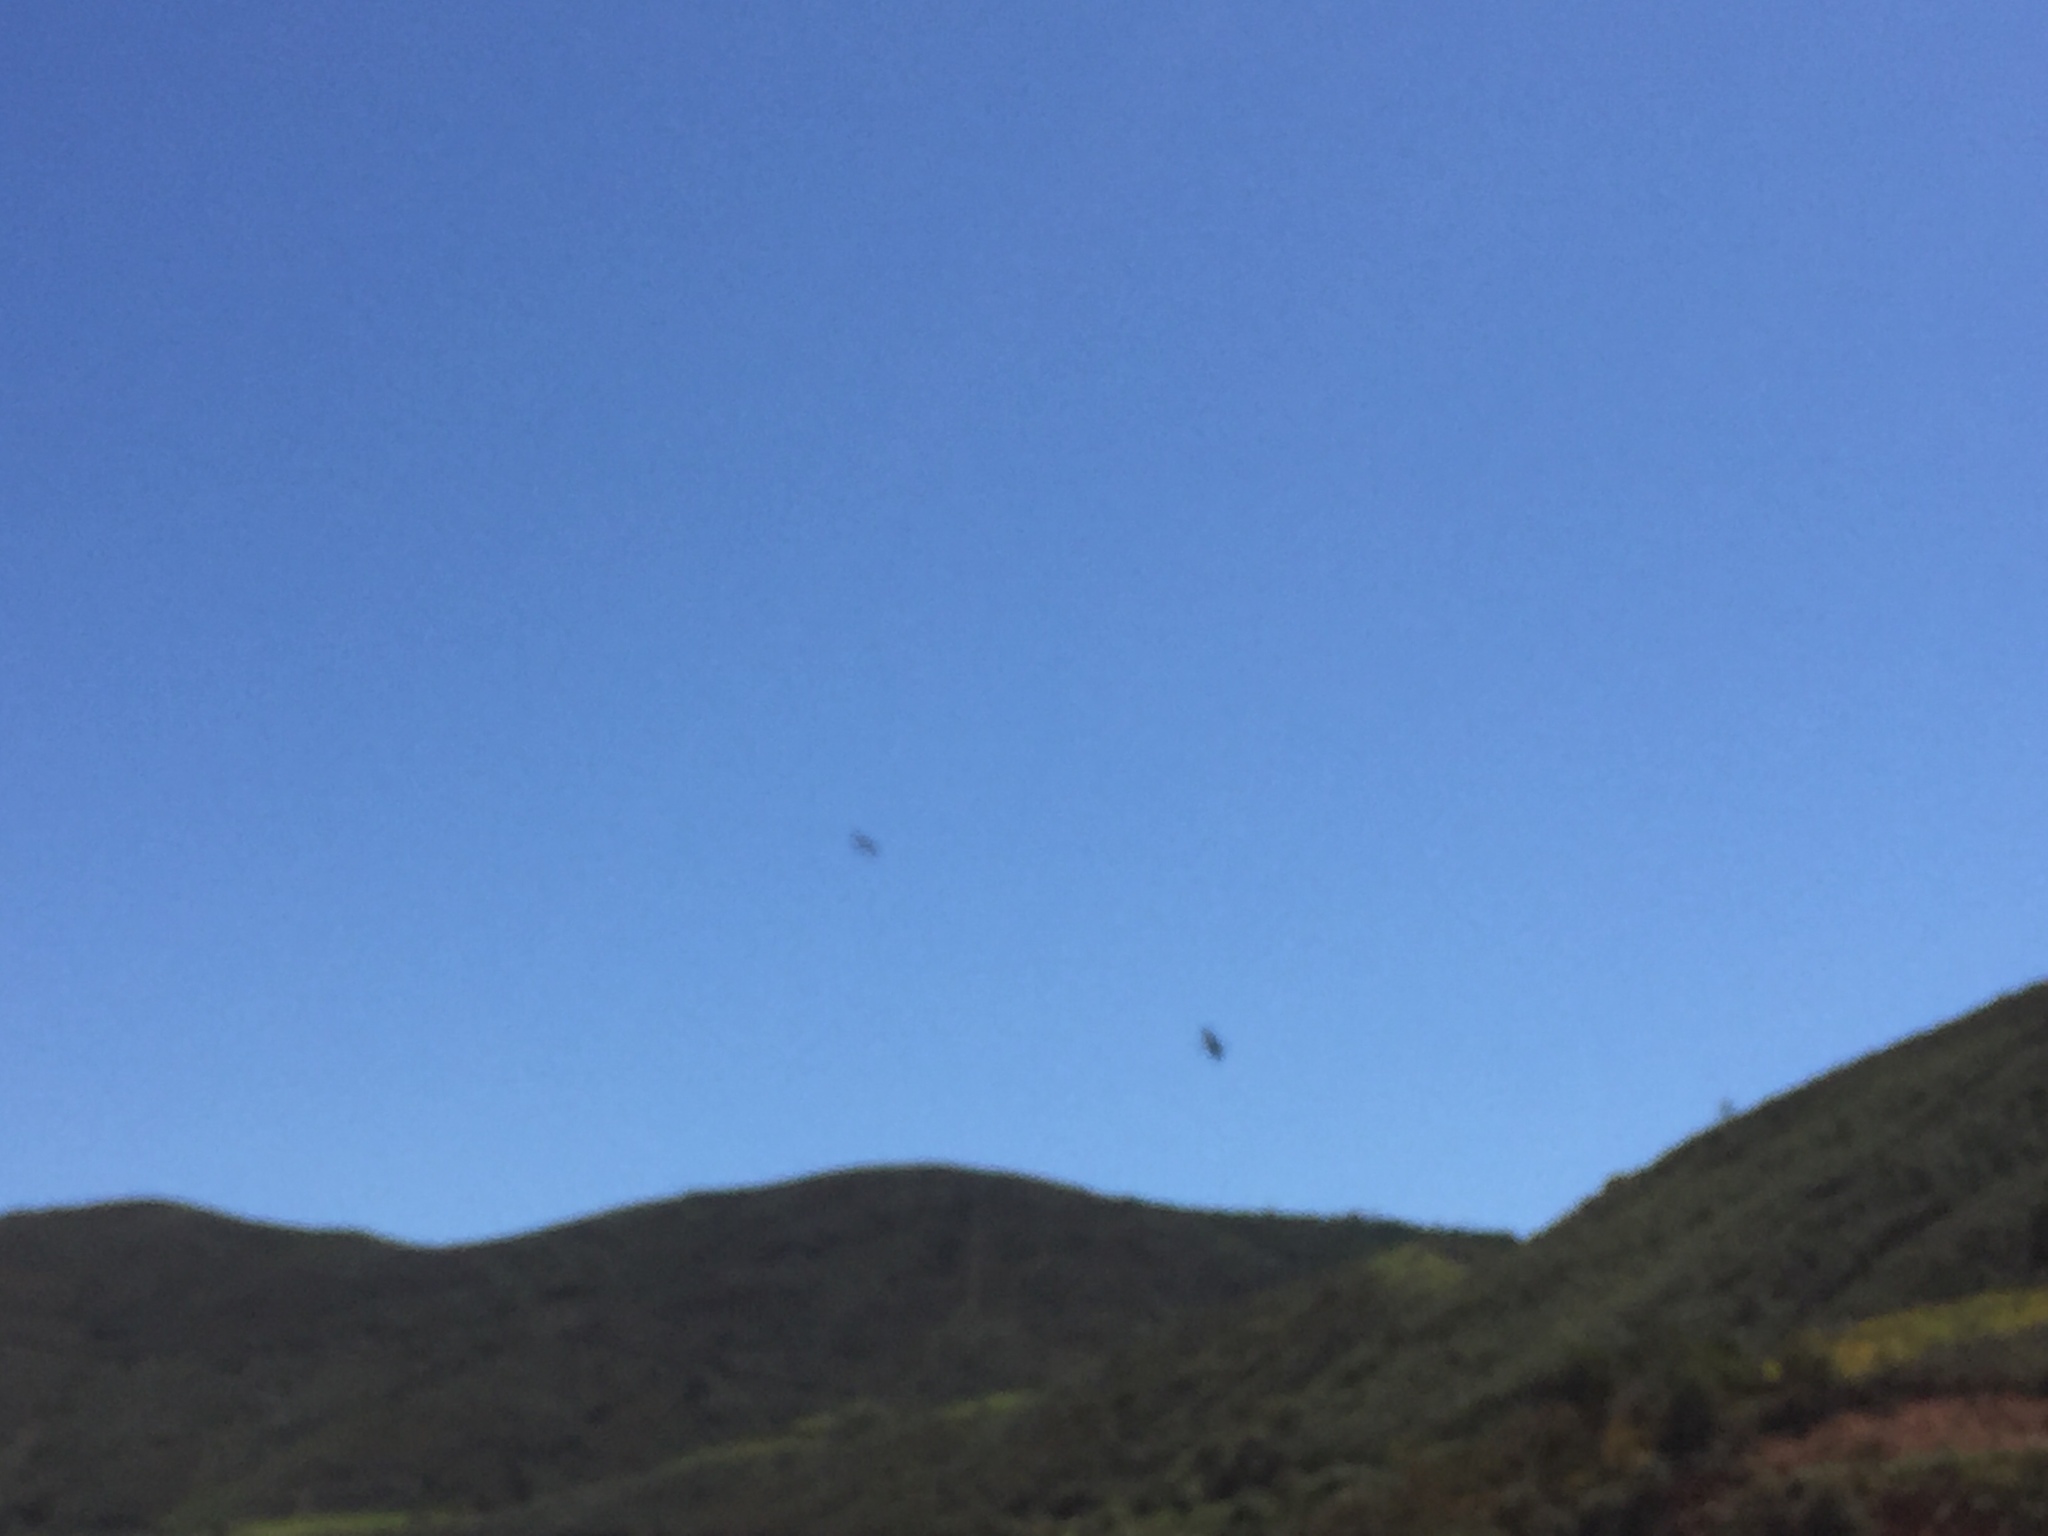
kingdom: Animalia
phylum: Chordata
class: Aves
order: Pelecaniformes
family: Threskiornithidae
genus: Plegadis
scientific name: Plegadis falcinellus
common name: Glossy ibis
